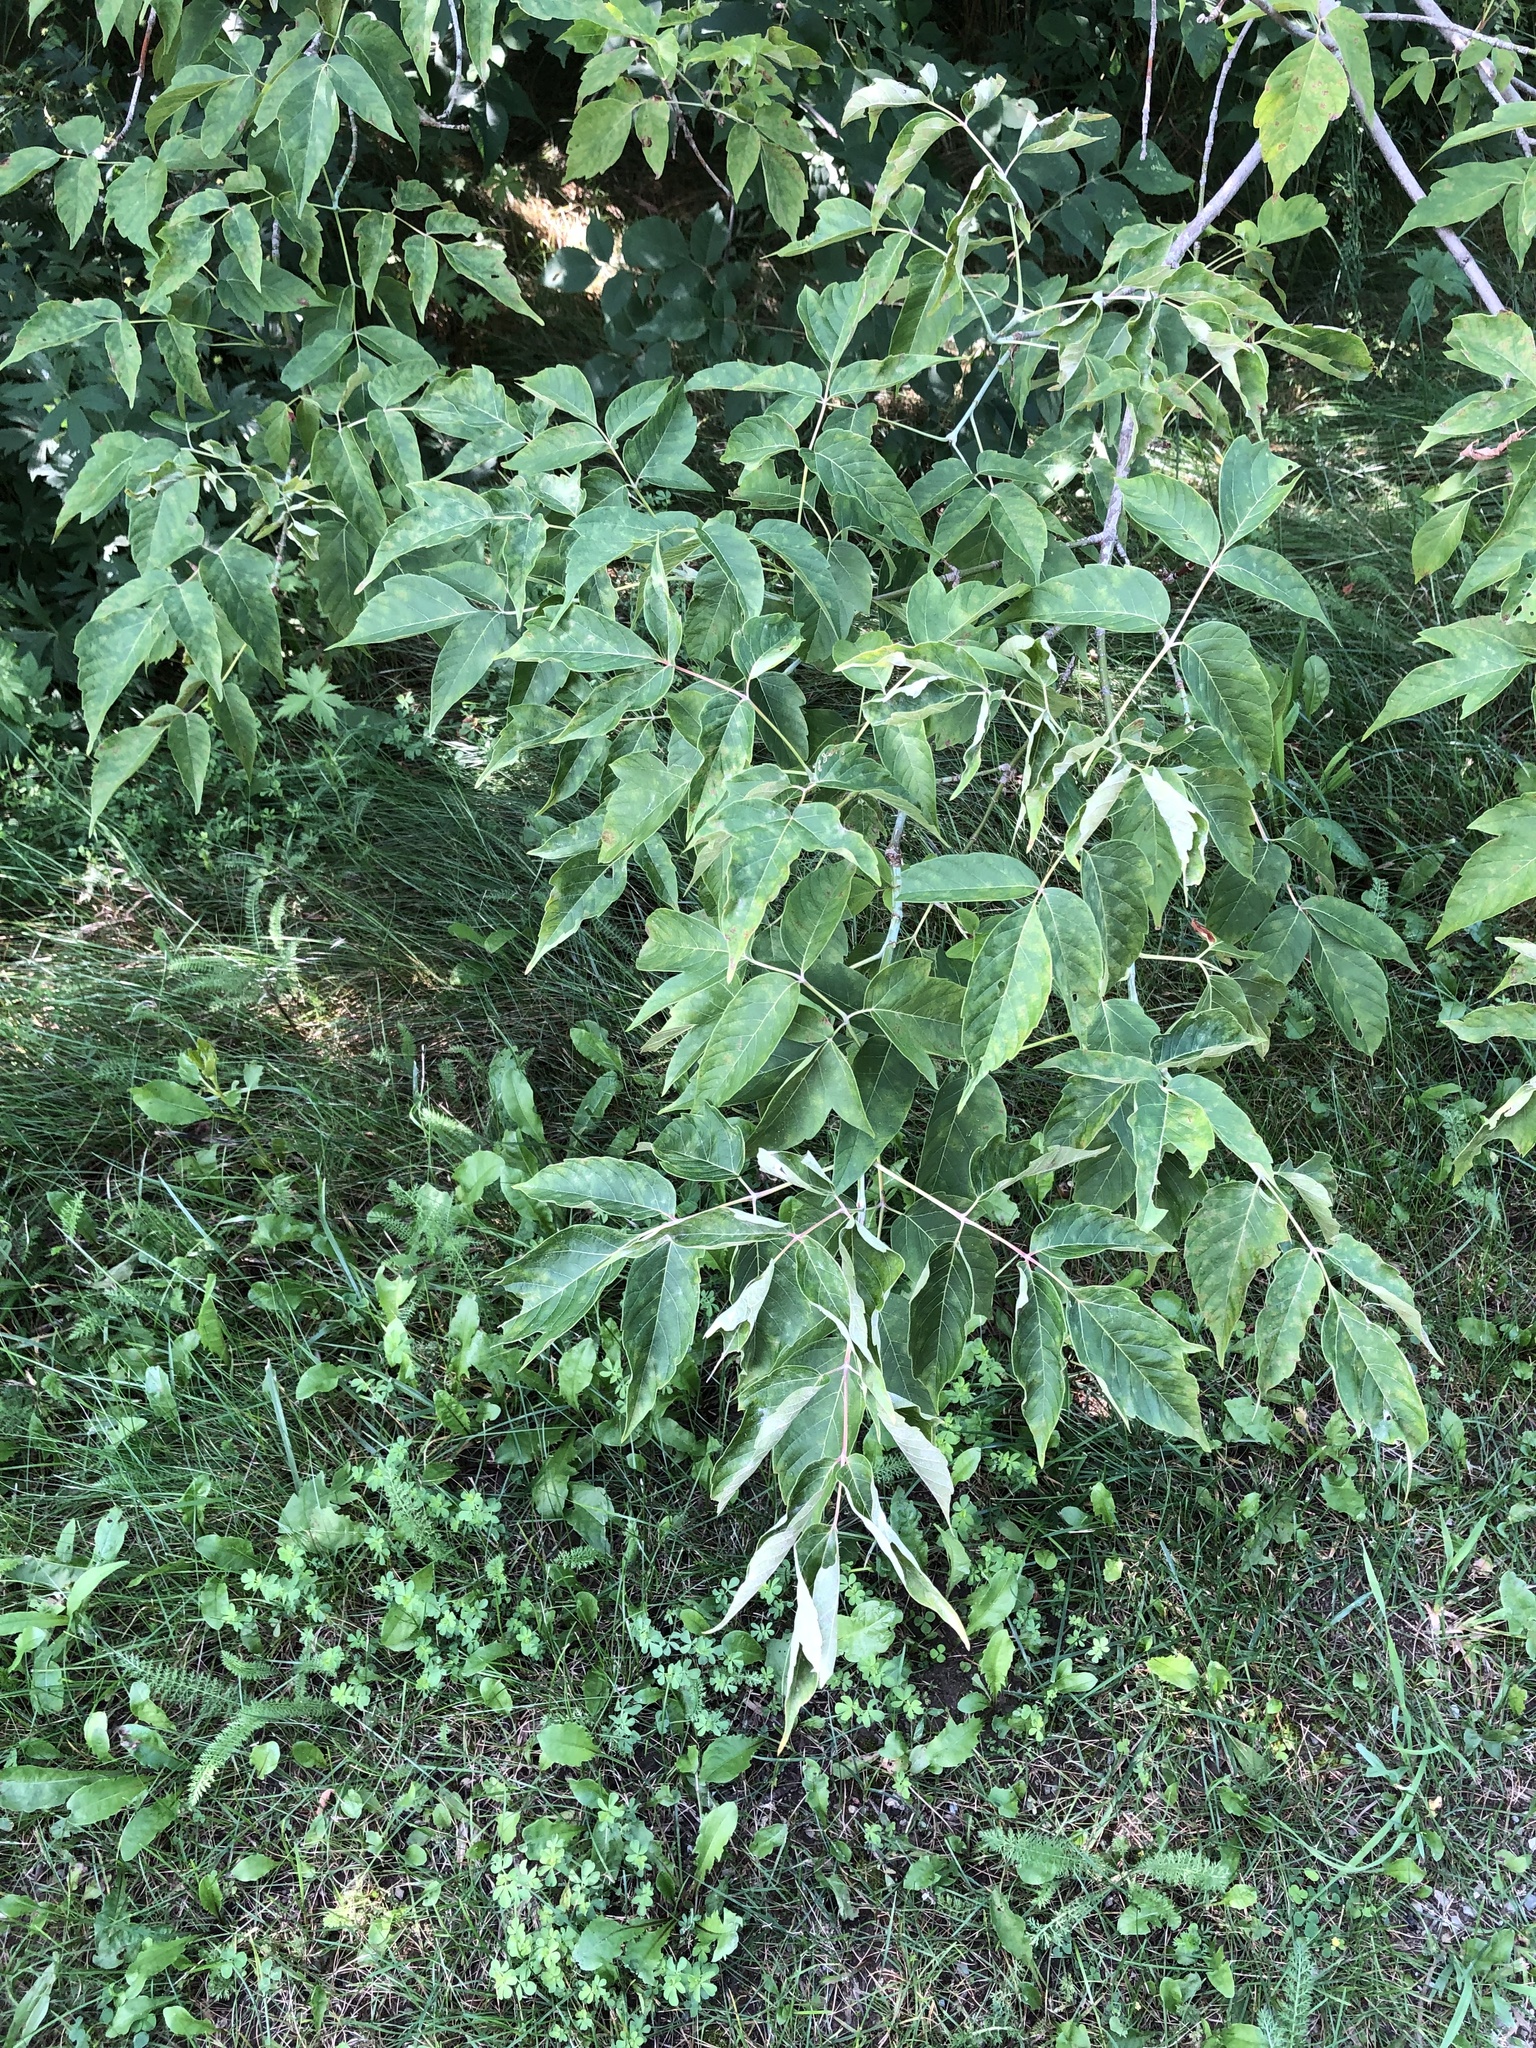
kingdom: Plantae
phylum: Tracheophyta
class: Magnoliopsida
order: Sapindales
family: Sapindaceae
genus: Acer
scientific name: Acer negundo
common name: Ashleaf maple
